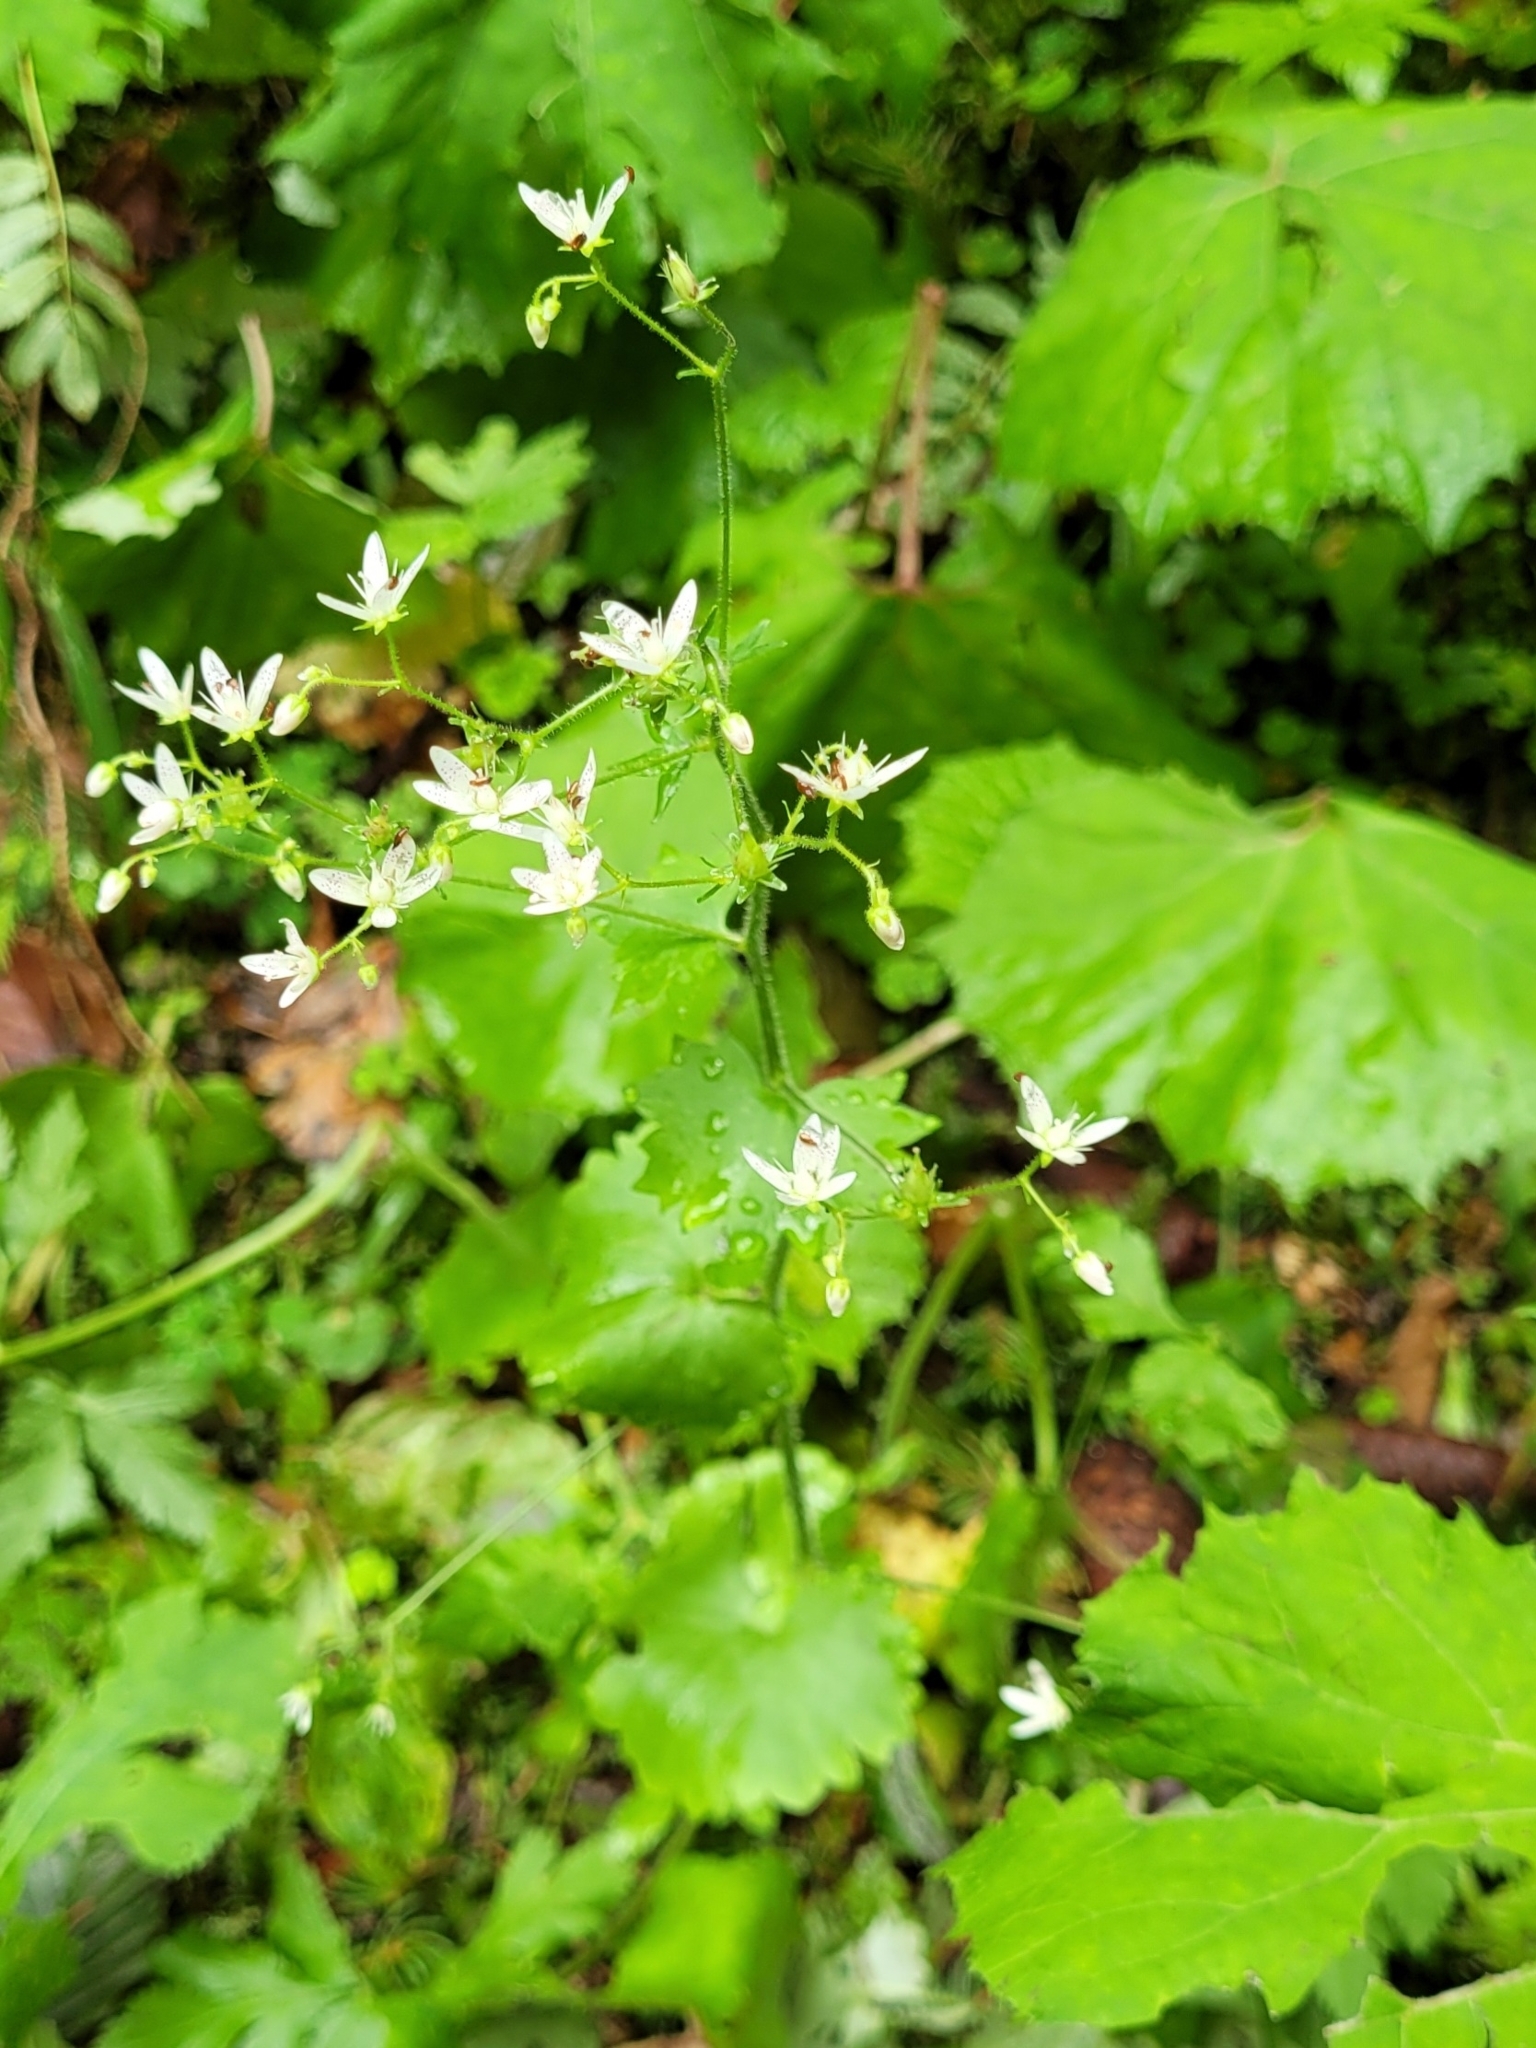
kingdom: Plantae
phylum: Tracheophyta
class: Magnoliopsida
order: Saxifragales
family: Saxifragaceae
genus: Saxifraga
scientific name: Saxifraga rotundifolia
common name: Round-leaved saxifrage
